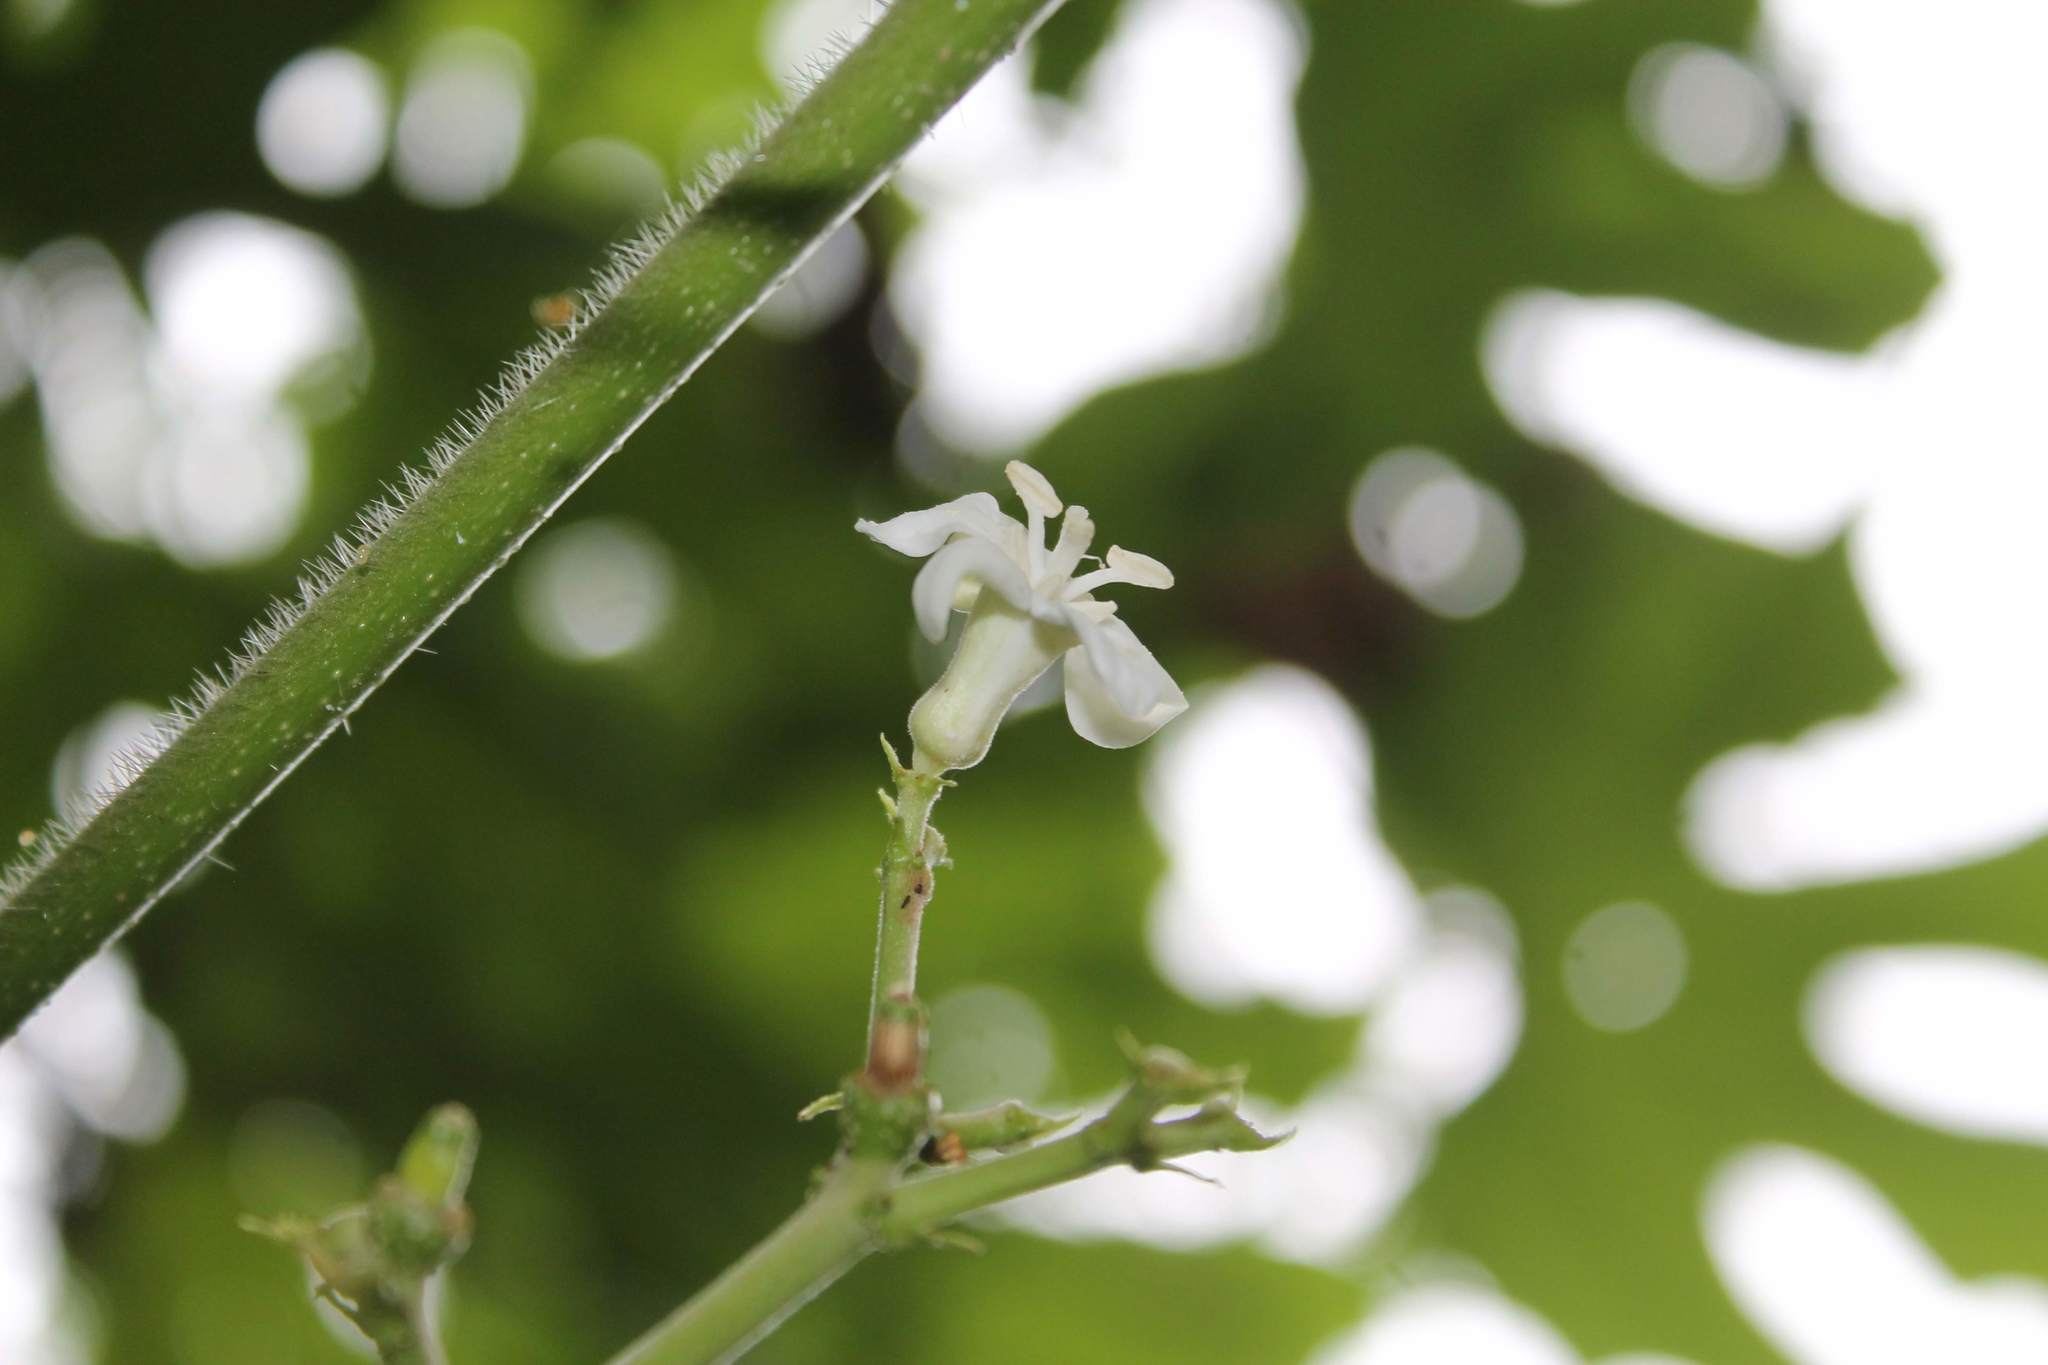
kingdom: Plantae
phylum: Tracheophyta
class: Magnoliopsida
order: Malpighiales
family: Euphorbiaceae
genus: Cnidoscolus
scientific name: Cnidoscolus tepiquensis
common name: White chilte
